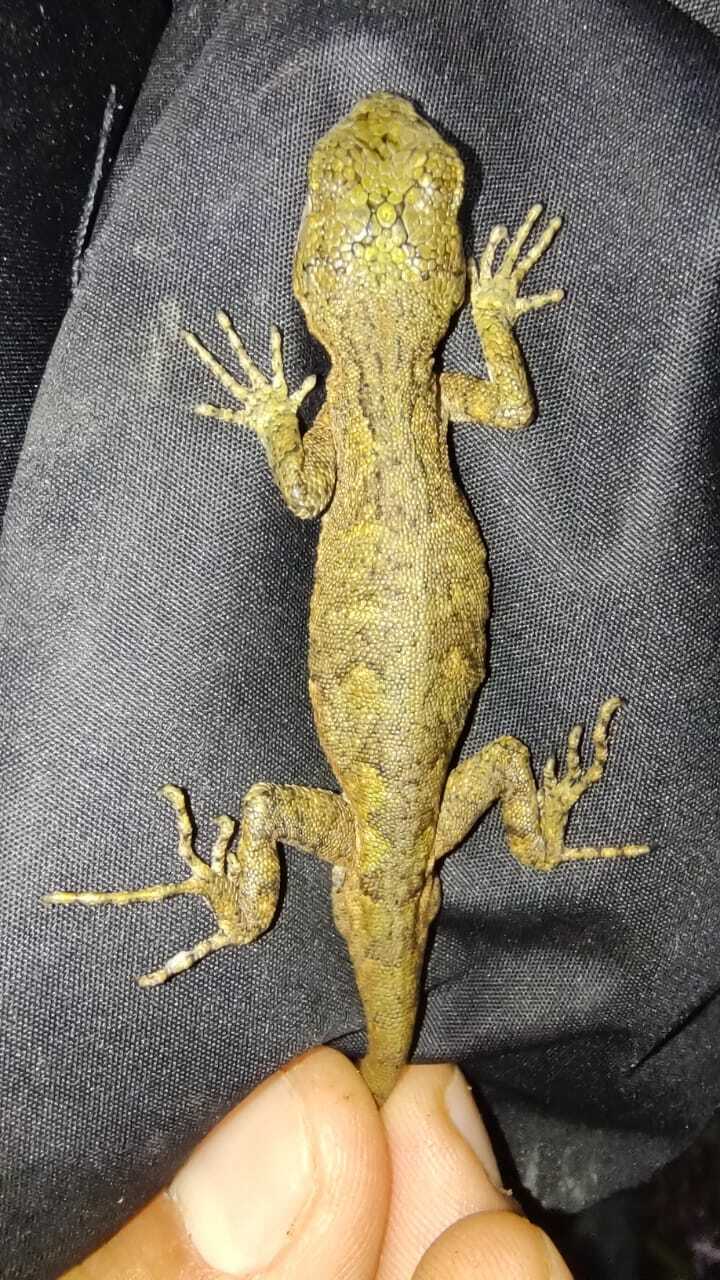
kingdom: Animalia
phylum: Chordata
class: Squamata
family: Leiosauridae
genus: Urostrophus
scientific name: Urostrophus vautieri
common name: Brazilian steppe iguana
